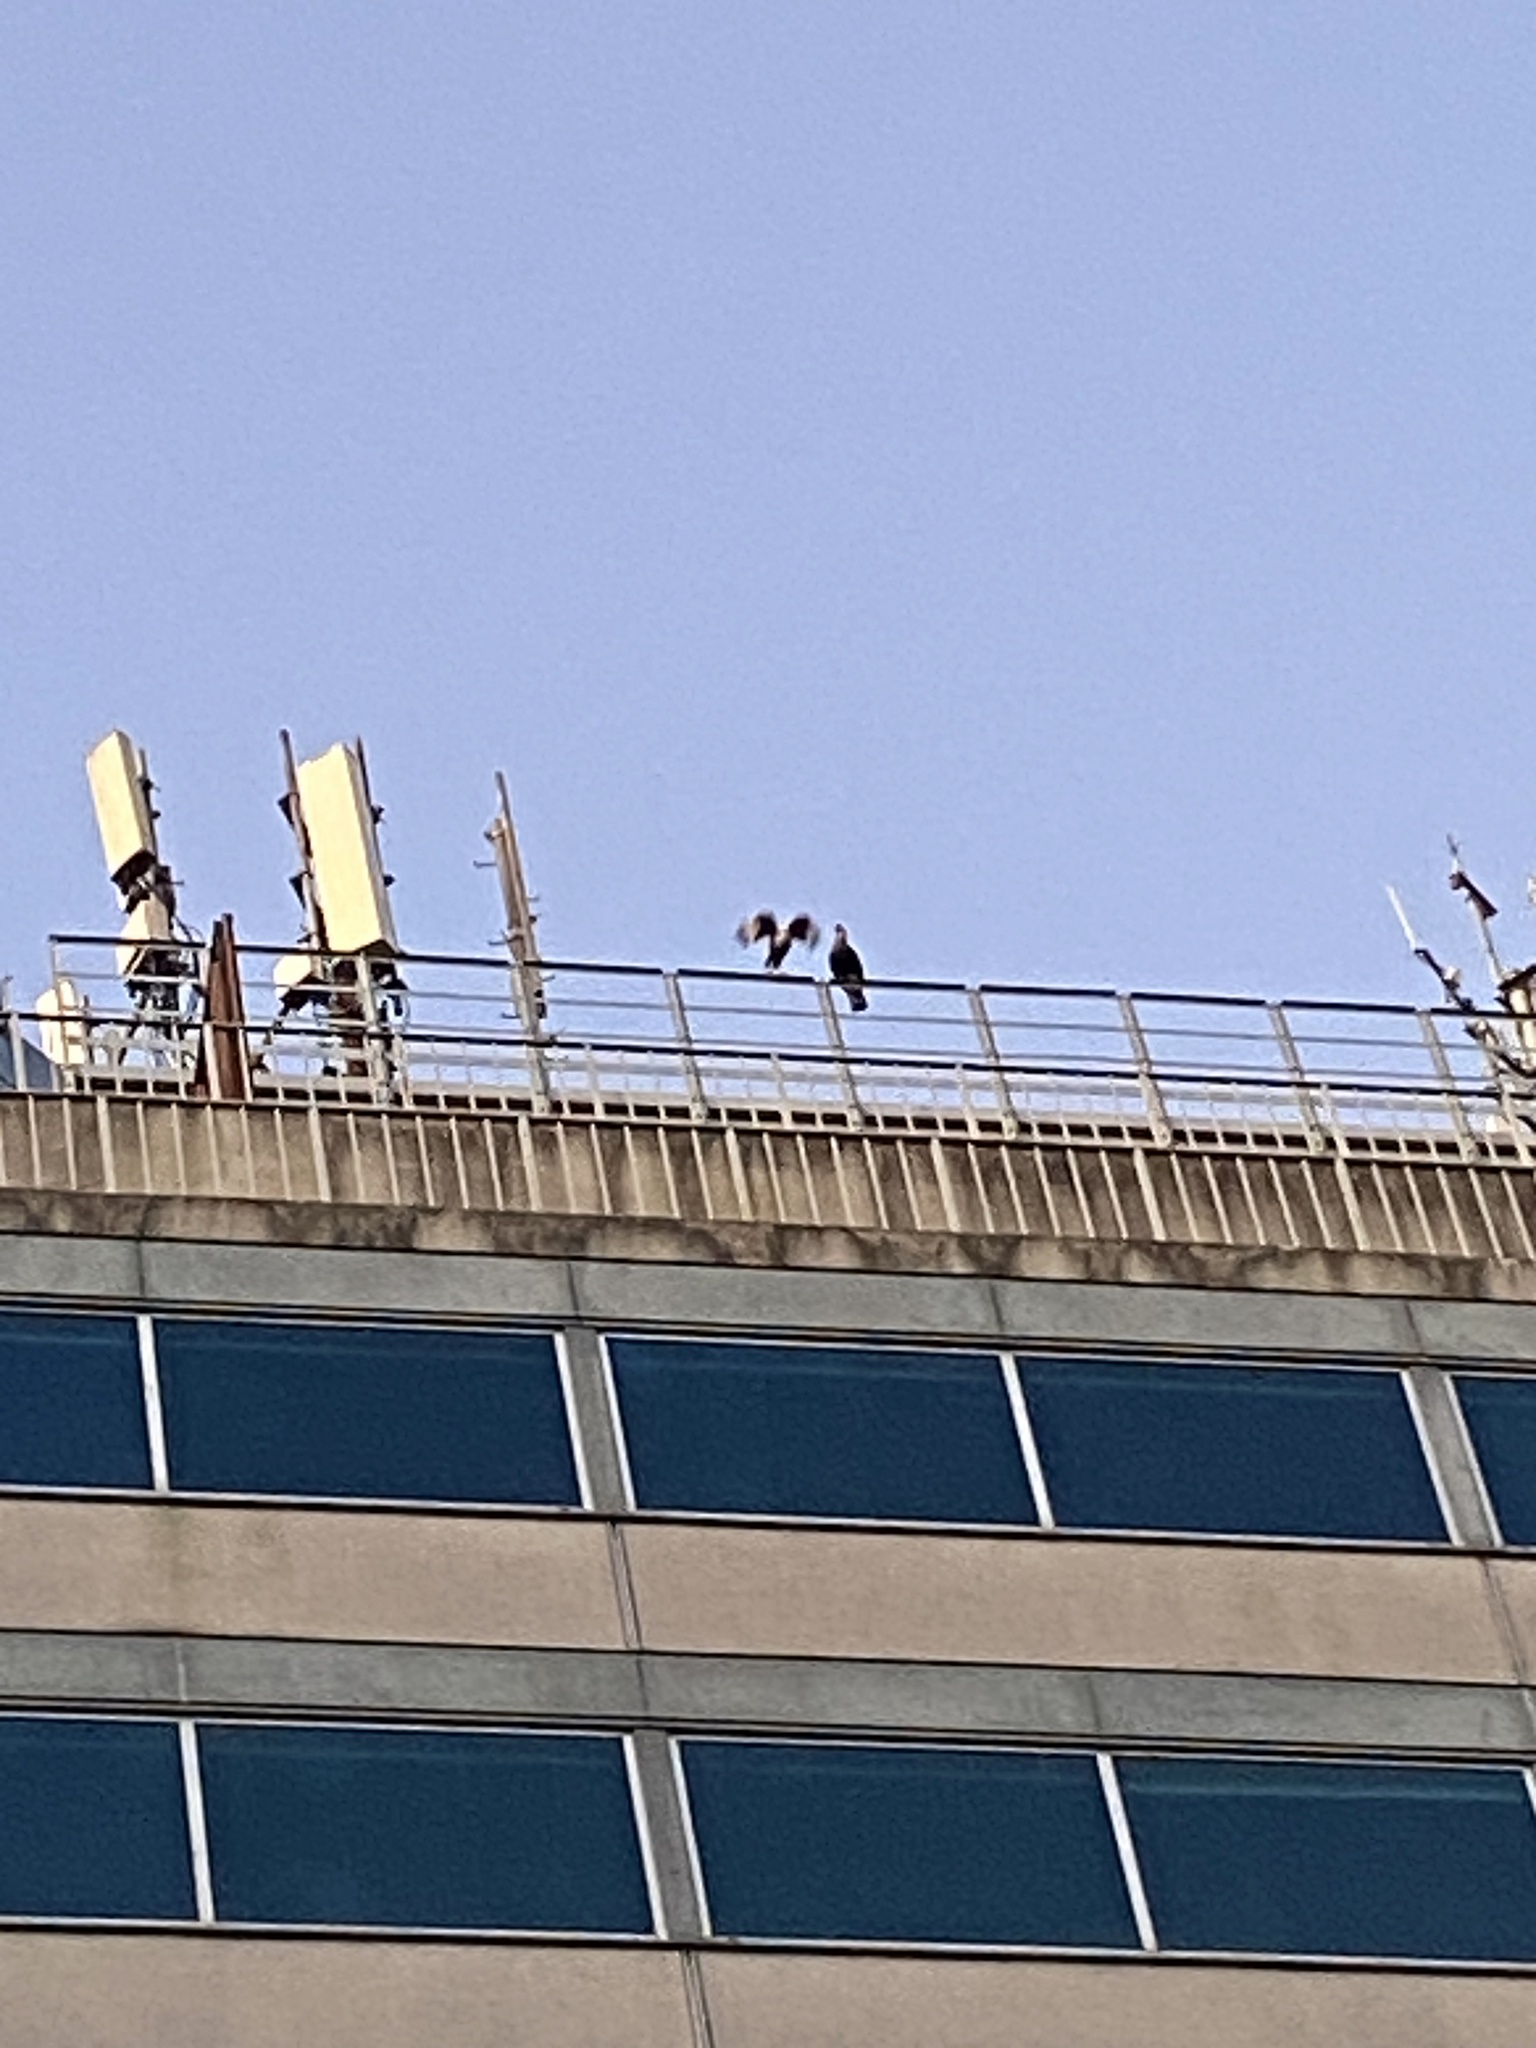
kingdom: Animalia
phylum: Chordata
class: Aves
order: Falconiformes
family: Falconidae
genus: Caracara
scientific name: Caracara plancus
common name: Southern caracara
